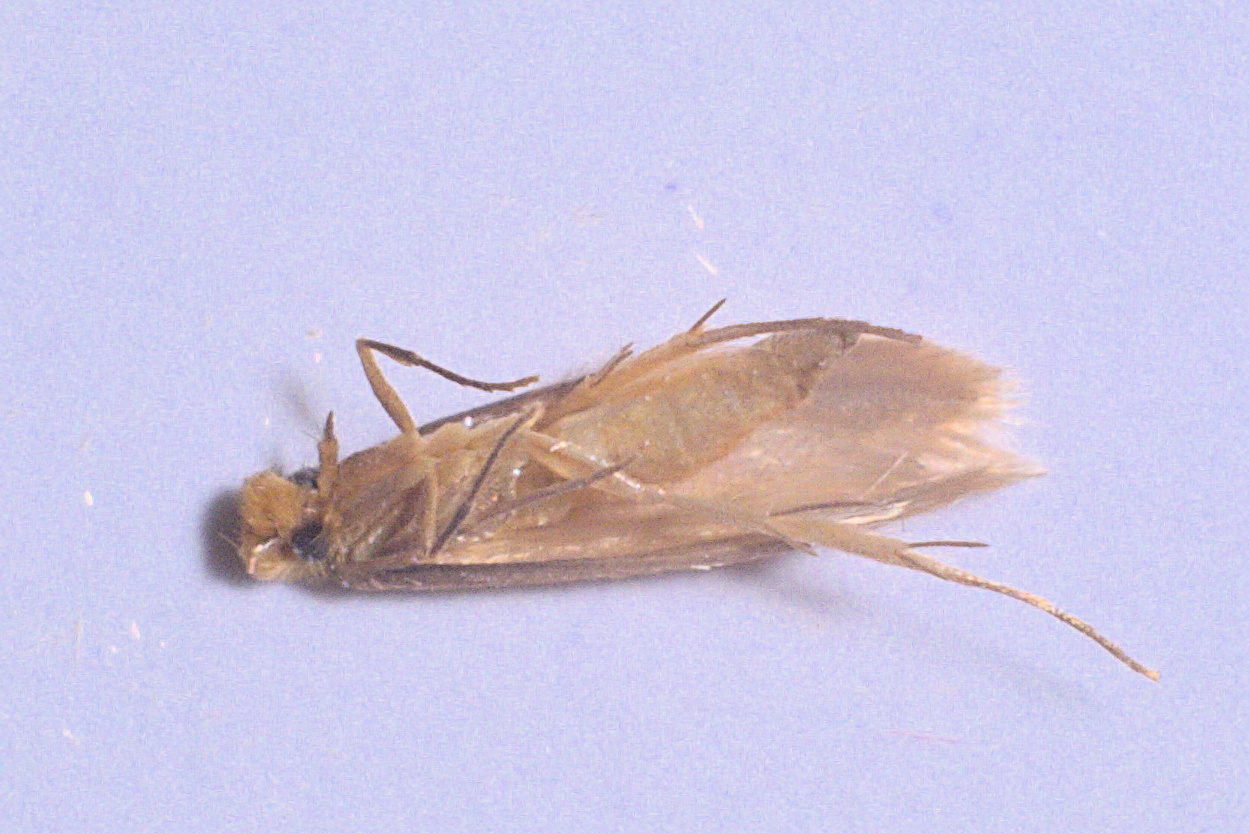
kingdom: Animalia
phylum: Arthropoda
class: Insecta
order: Lepidoptera
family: Tineidae
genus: Tineola
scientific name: Tineola bisselliella
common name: Webbing clothes moth
